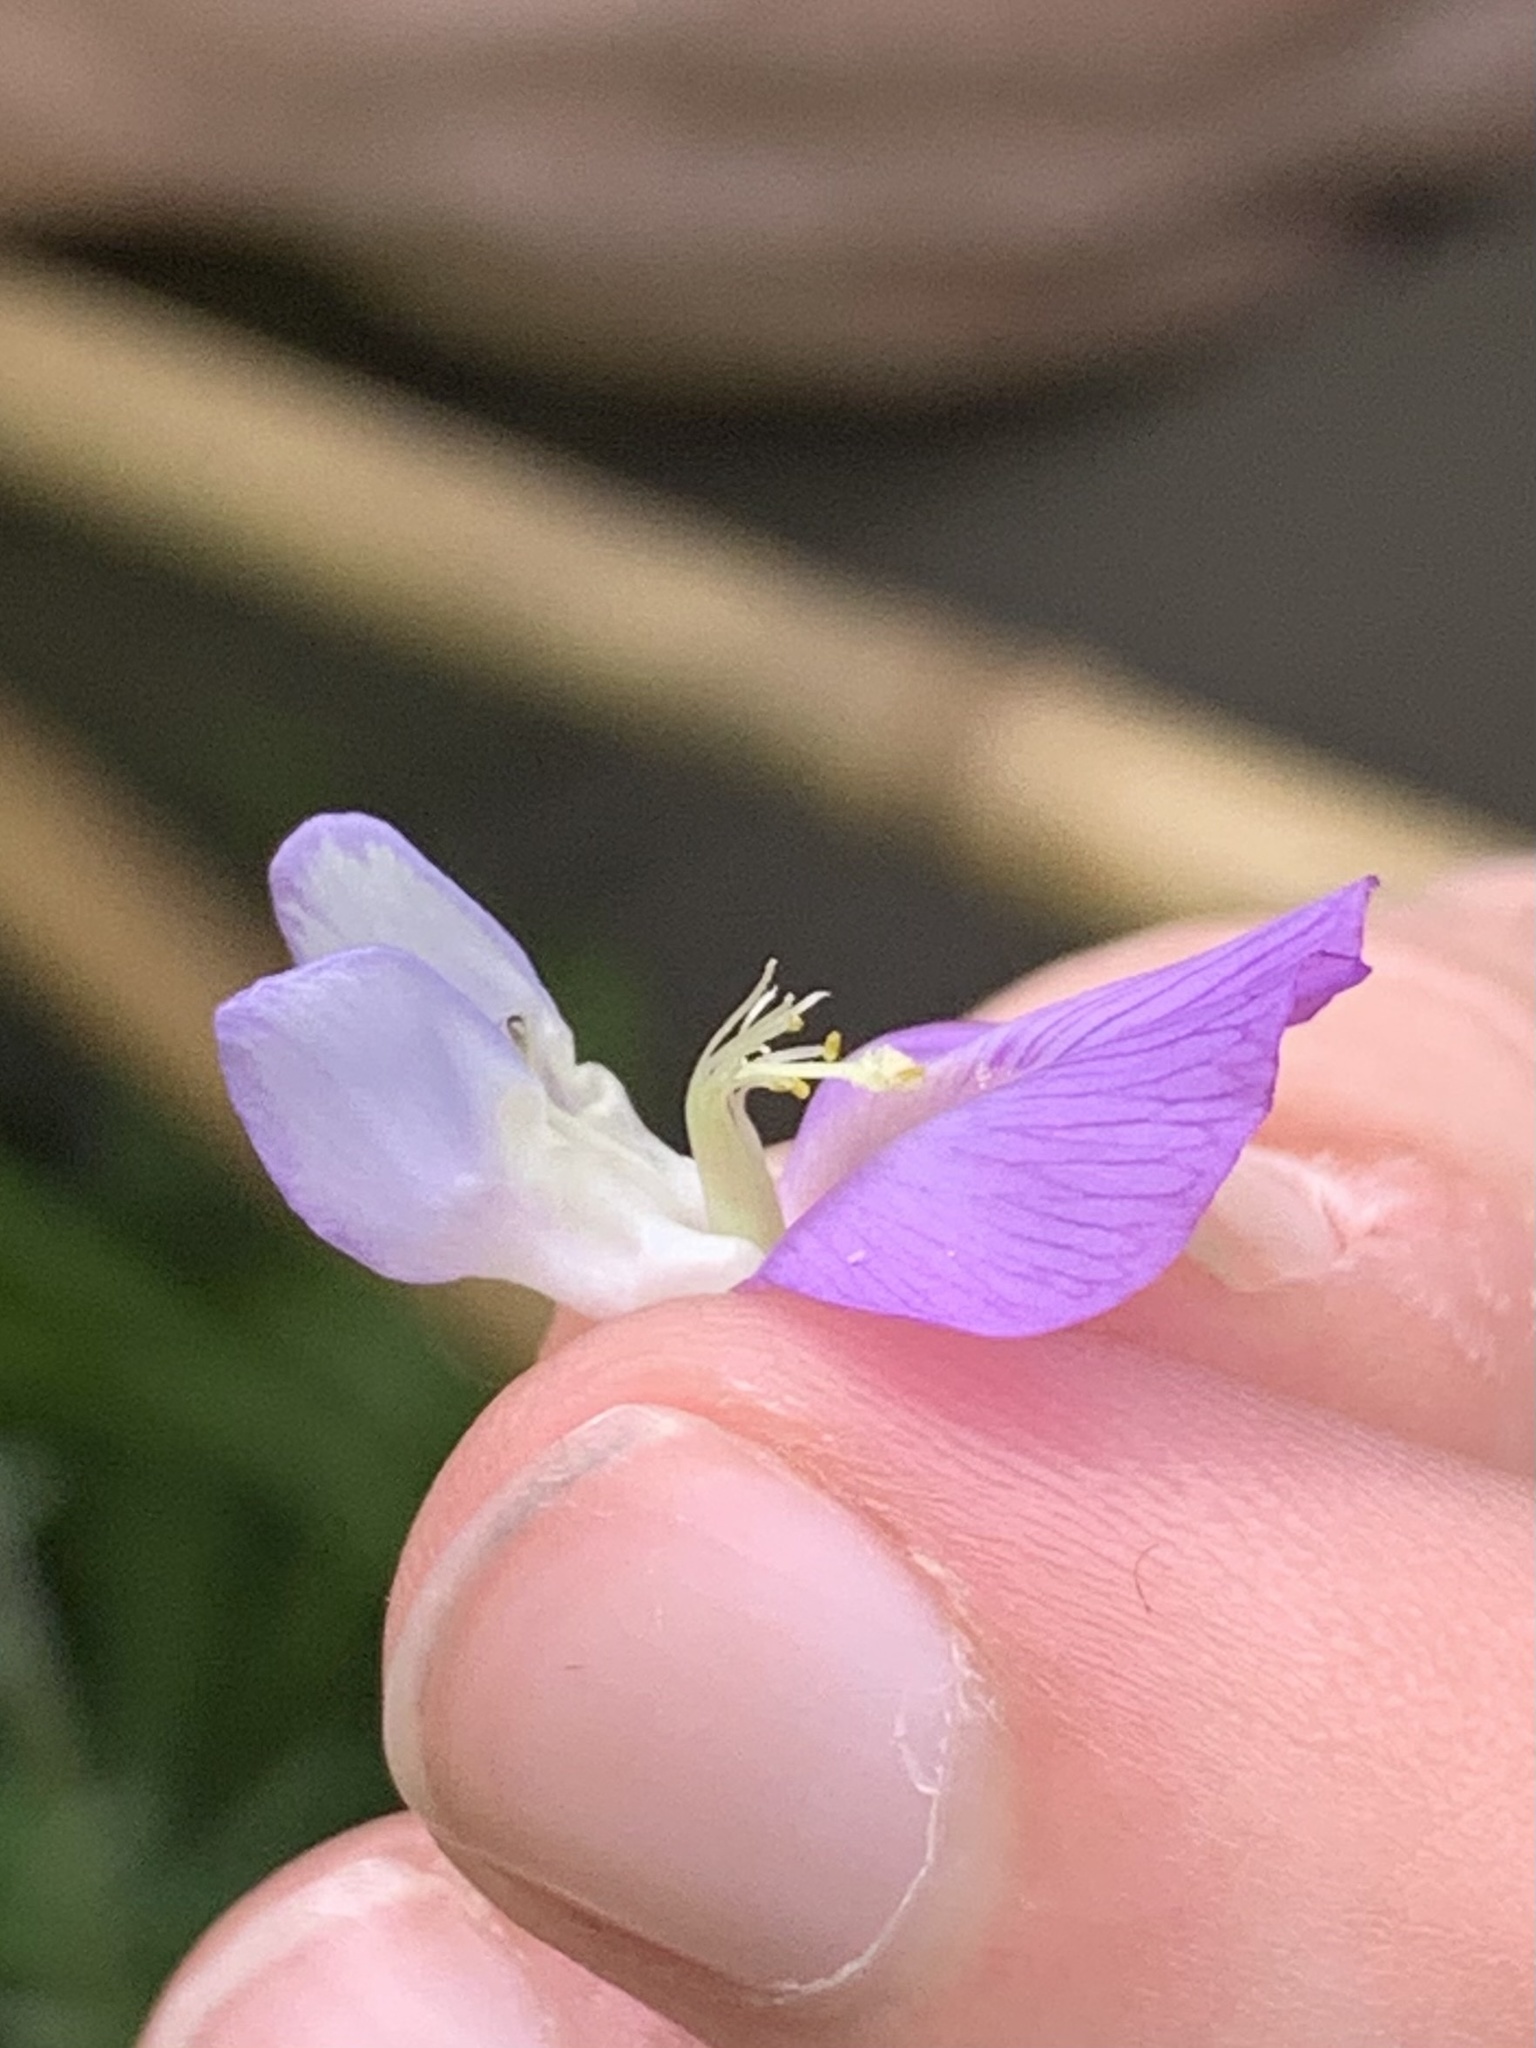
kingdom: Plantae
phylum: Tracheophyta
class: Magnoliopsida
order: Fabales
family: Fabaceae
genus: Vicia
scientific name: Vicia americana
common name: American vetch
